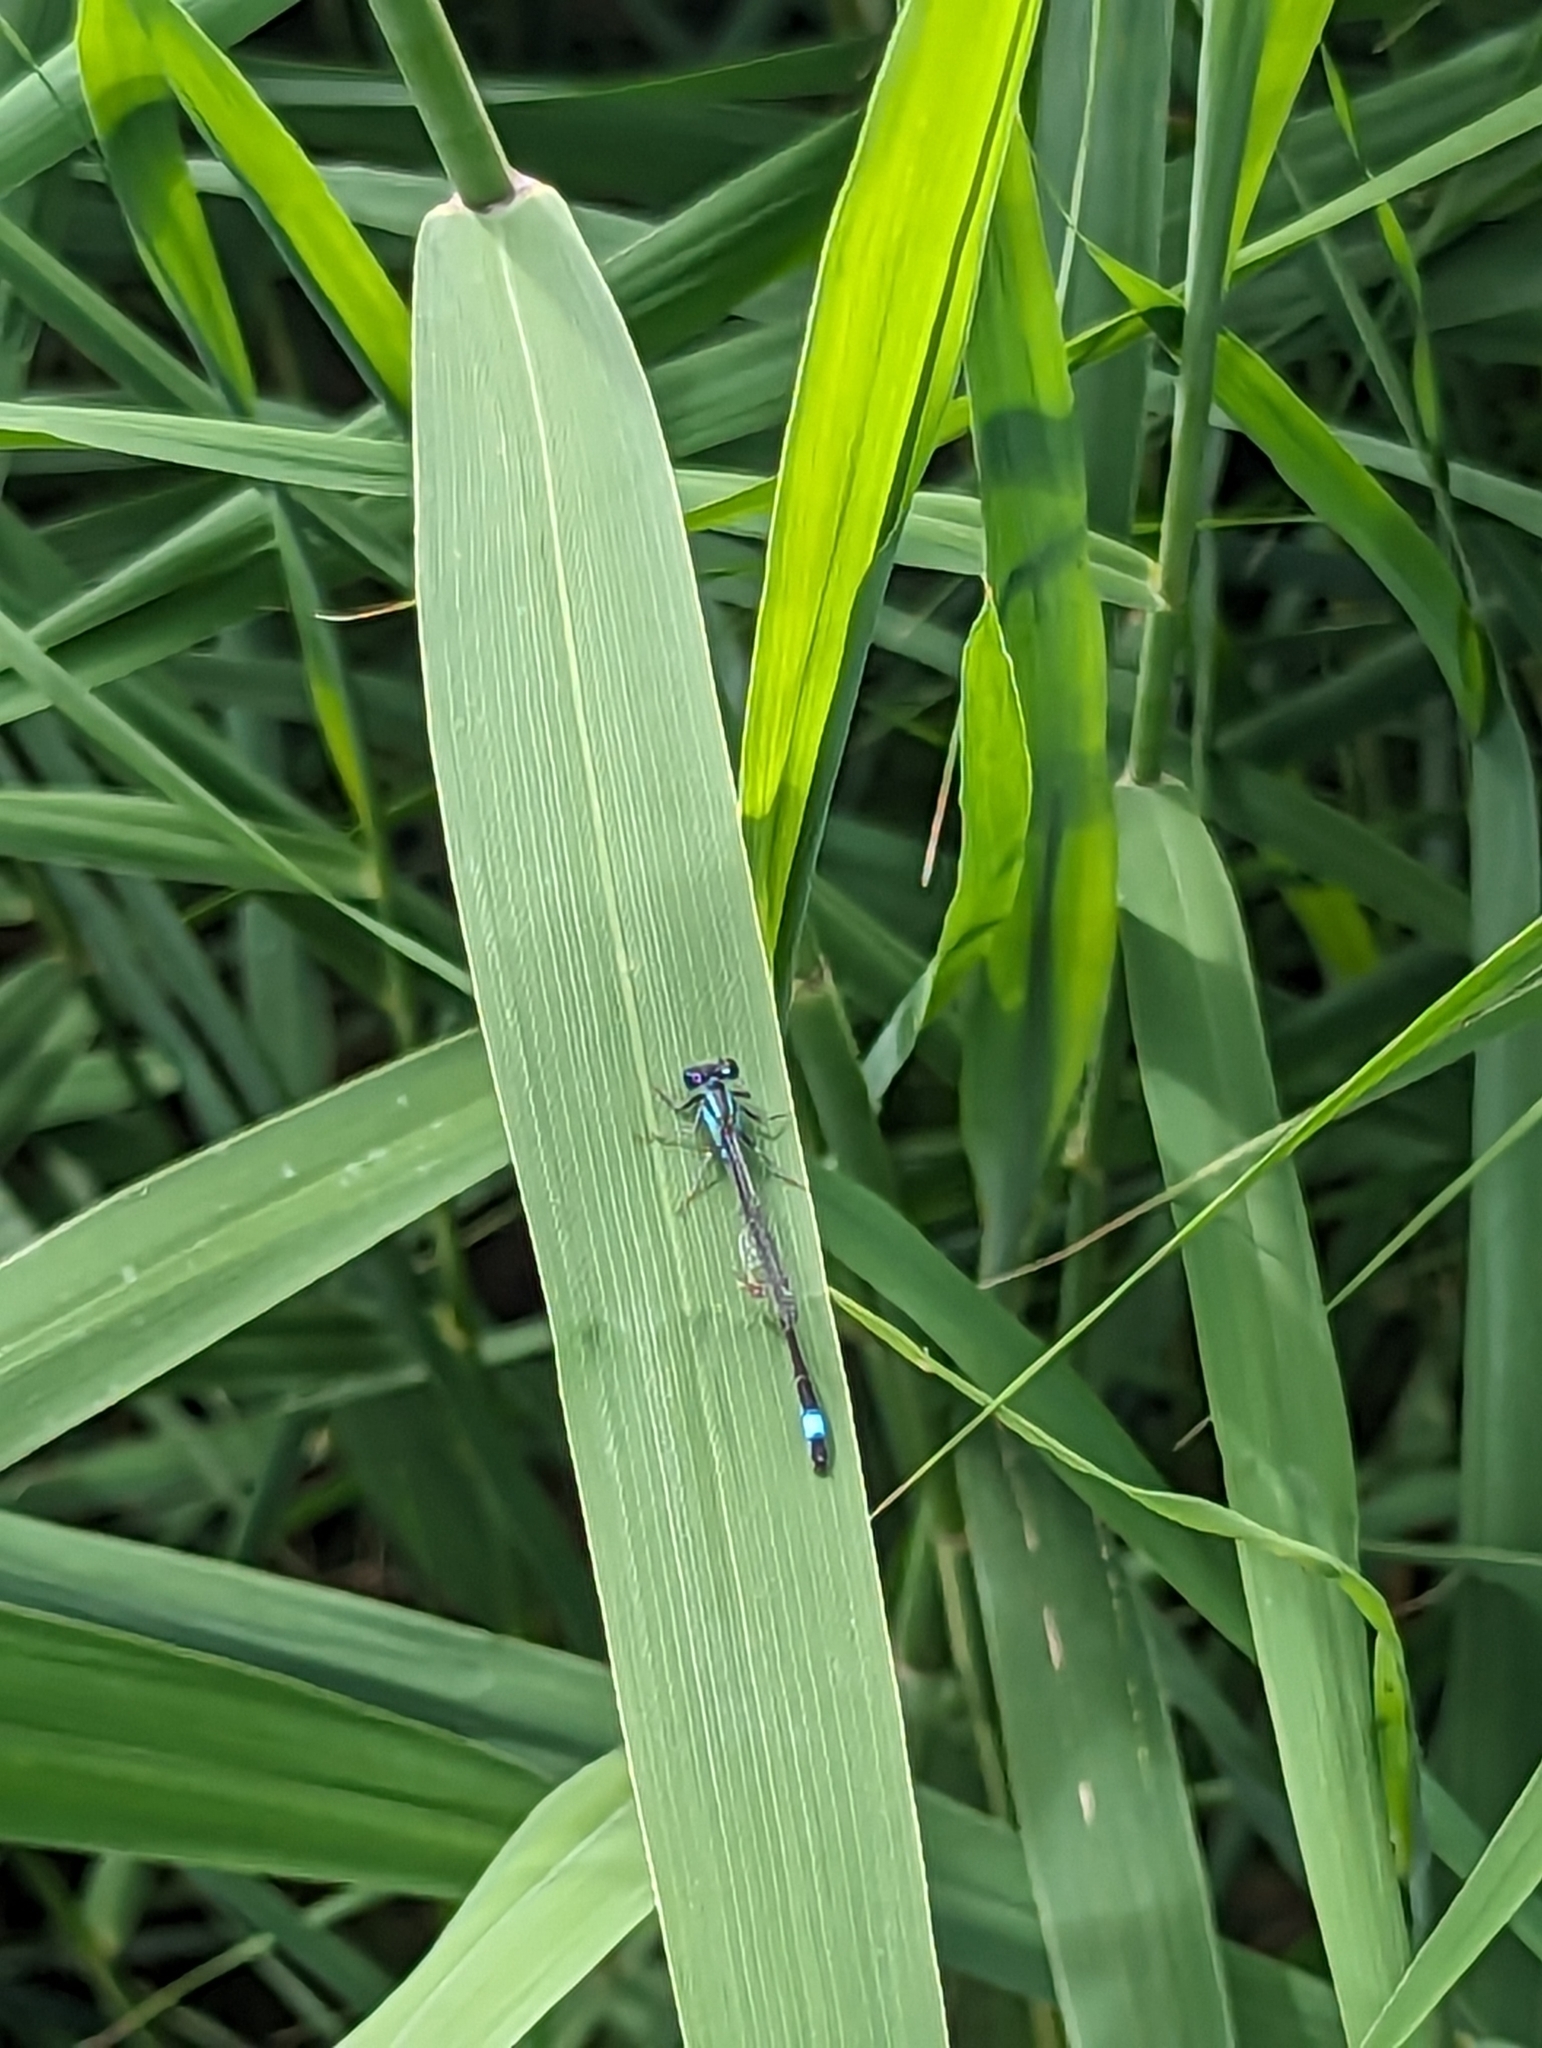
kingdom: Animalia
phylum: Arthropoda
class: Insecta
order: Odonata
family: Coenagrionidae
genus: Ischnura
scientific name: Ischnura elegans
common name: Blue-tailed damselfly
